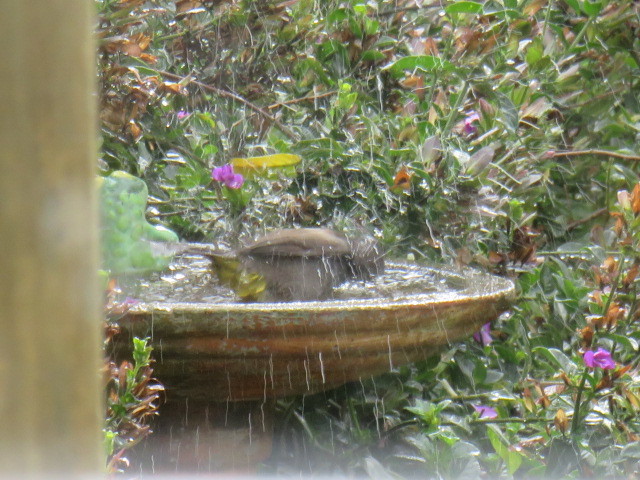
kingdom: Animalia
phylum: Chordata
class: Aves
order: Passeriformes
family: Pycnonotidae
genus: Pycnonotus
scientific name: Pycnonotus capensis
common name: Cape bulbul
